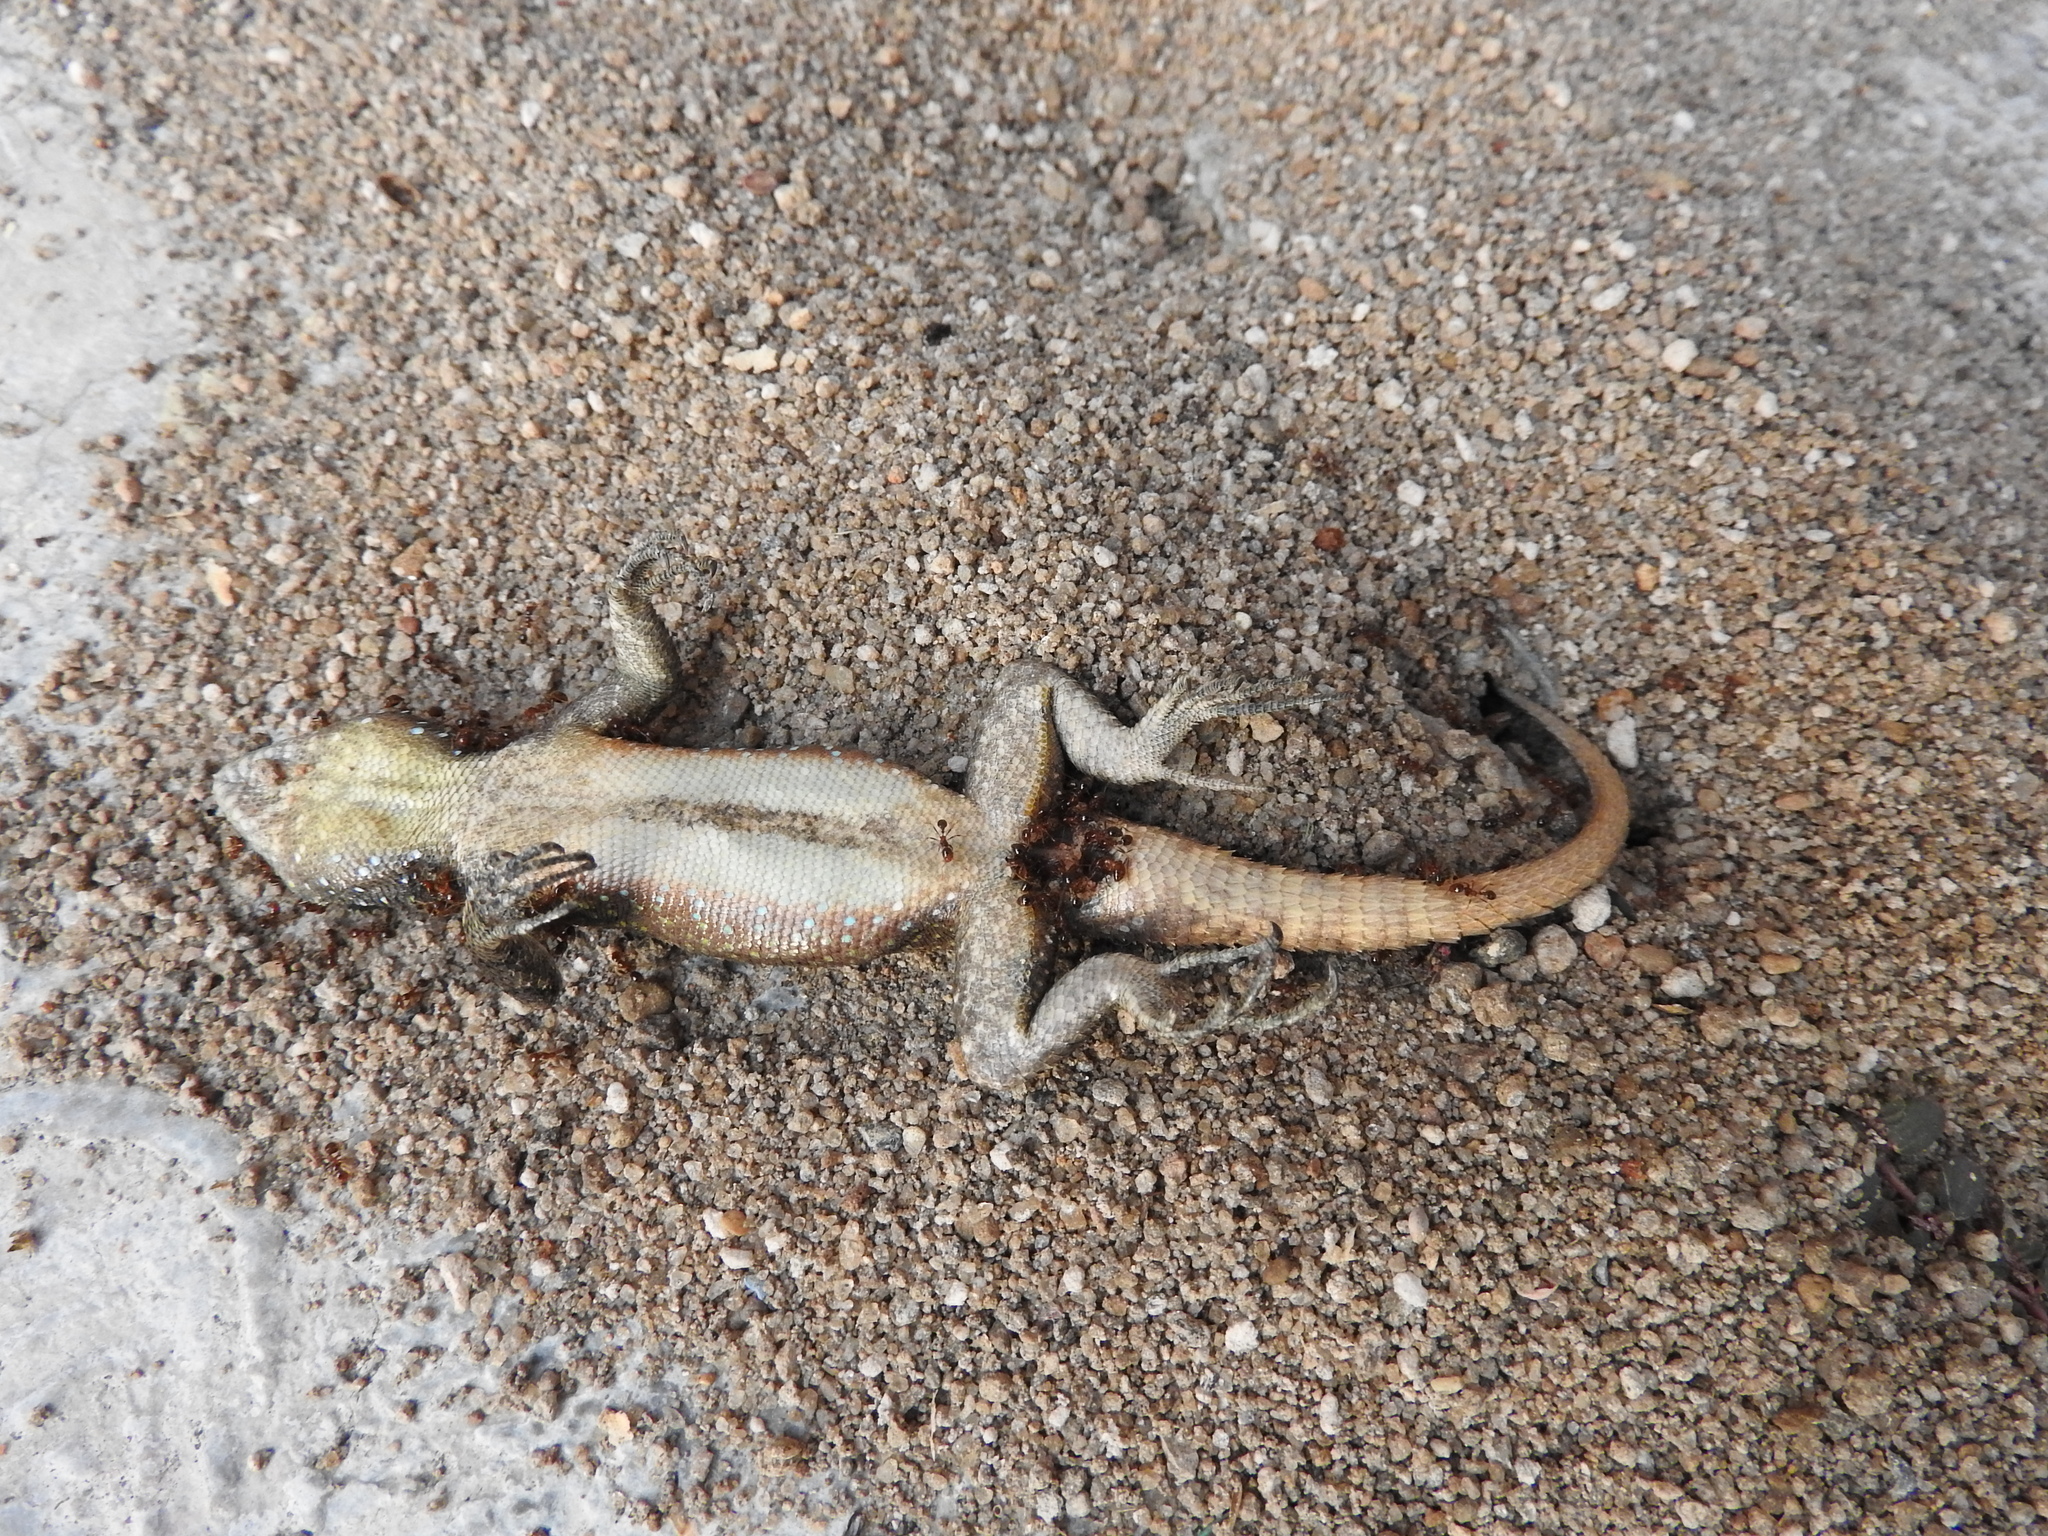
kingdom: Animalia
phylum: Chordata
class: Squamata
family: Phrynosomatidae
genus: Sceloporus
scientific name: Sceloporus grammicus
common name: Mesquite lizard
